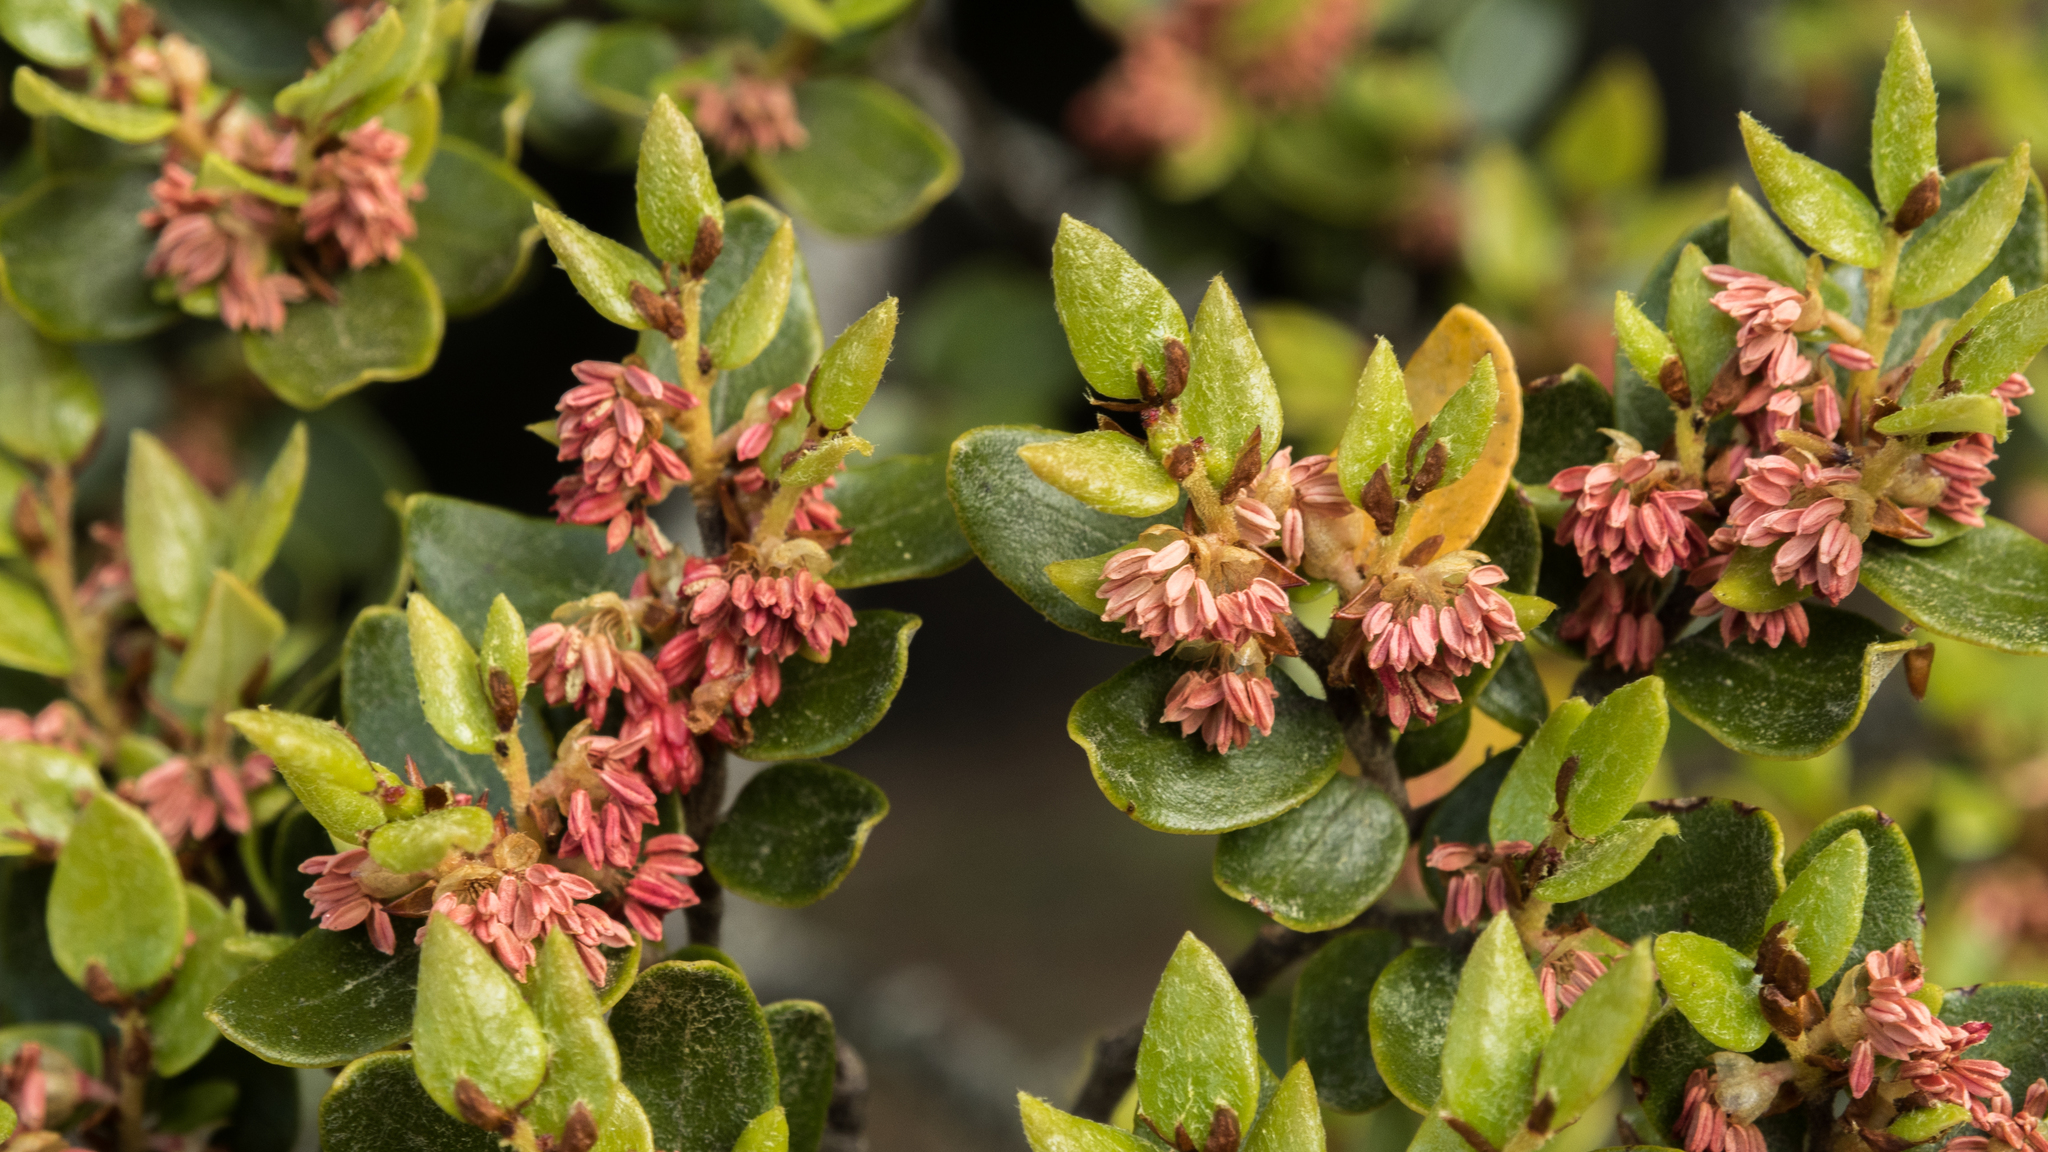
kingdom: Plantae
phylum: Tracheophyta
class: Magnoliopsida
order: Fagales
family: Nothofagaceae
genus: Nothofagus
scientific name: Nothofagus cliffortioides
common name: Mountain beech
